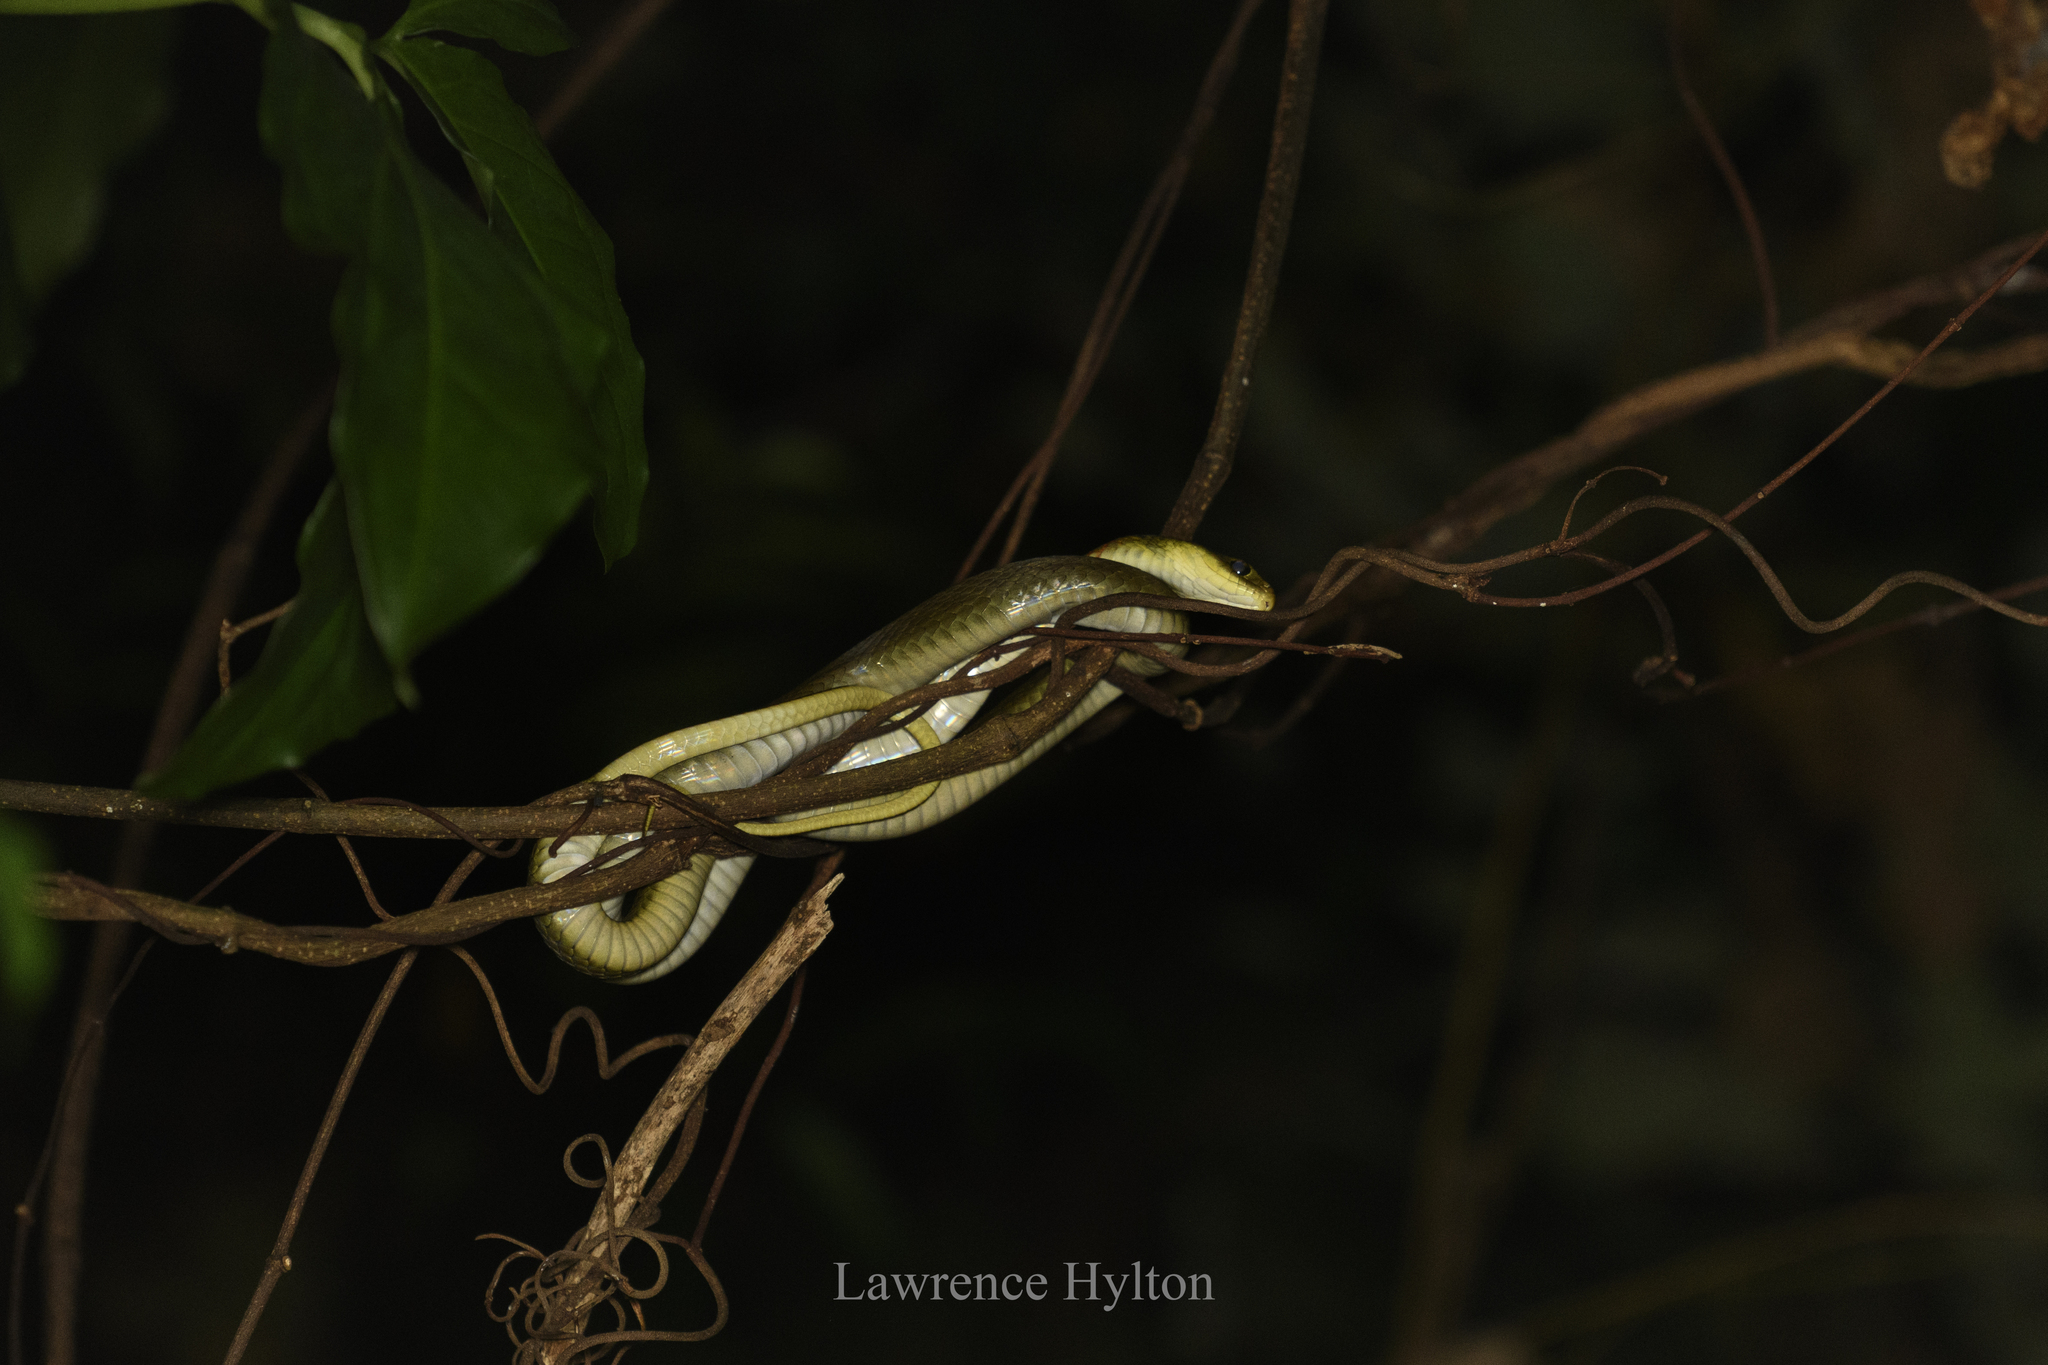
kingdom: Animalia
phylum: Chordata
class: Squamata
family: Colubridae
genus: Rhabdophis
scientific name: Rhabdophis helleri
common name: Heller’s red-necked keelback
